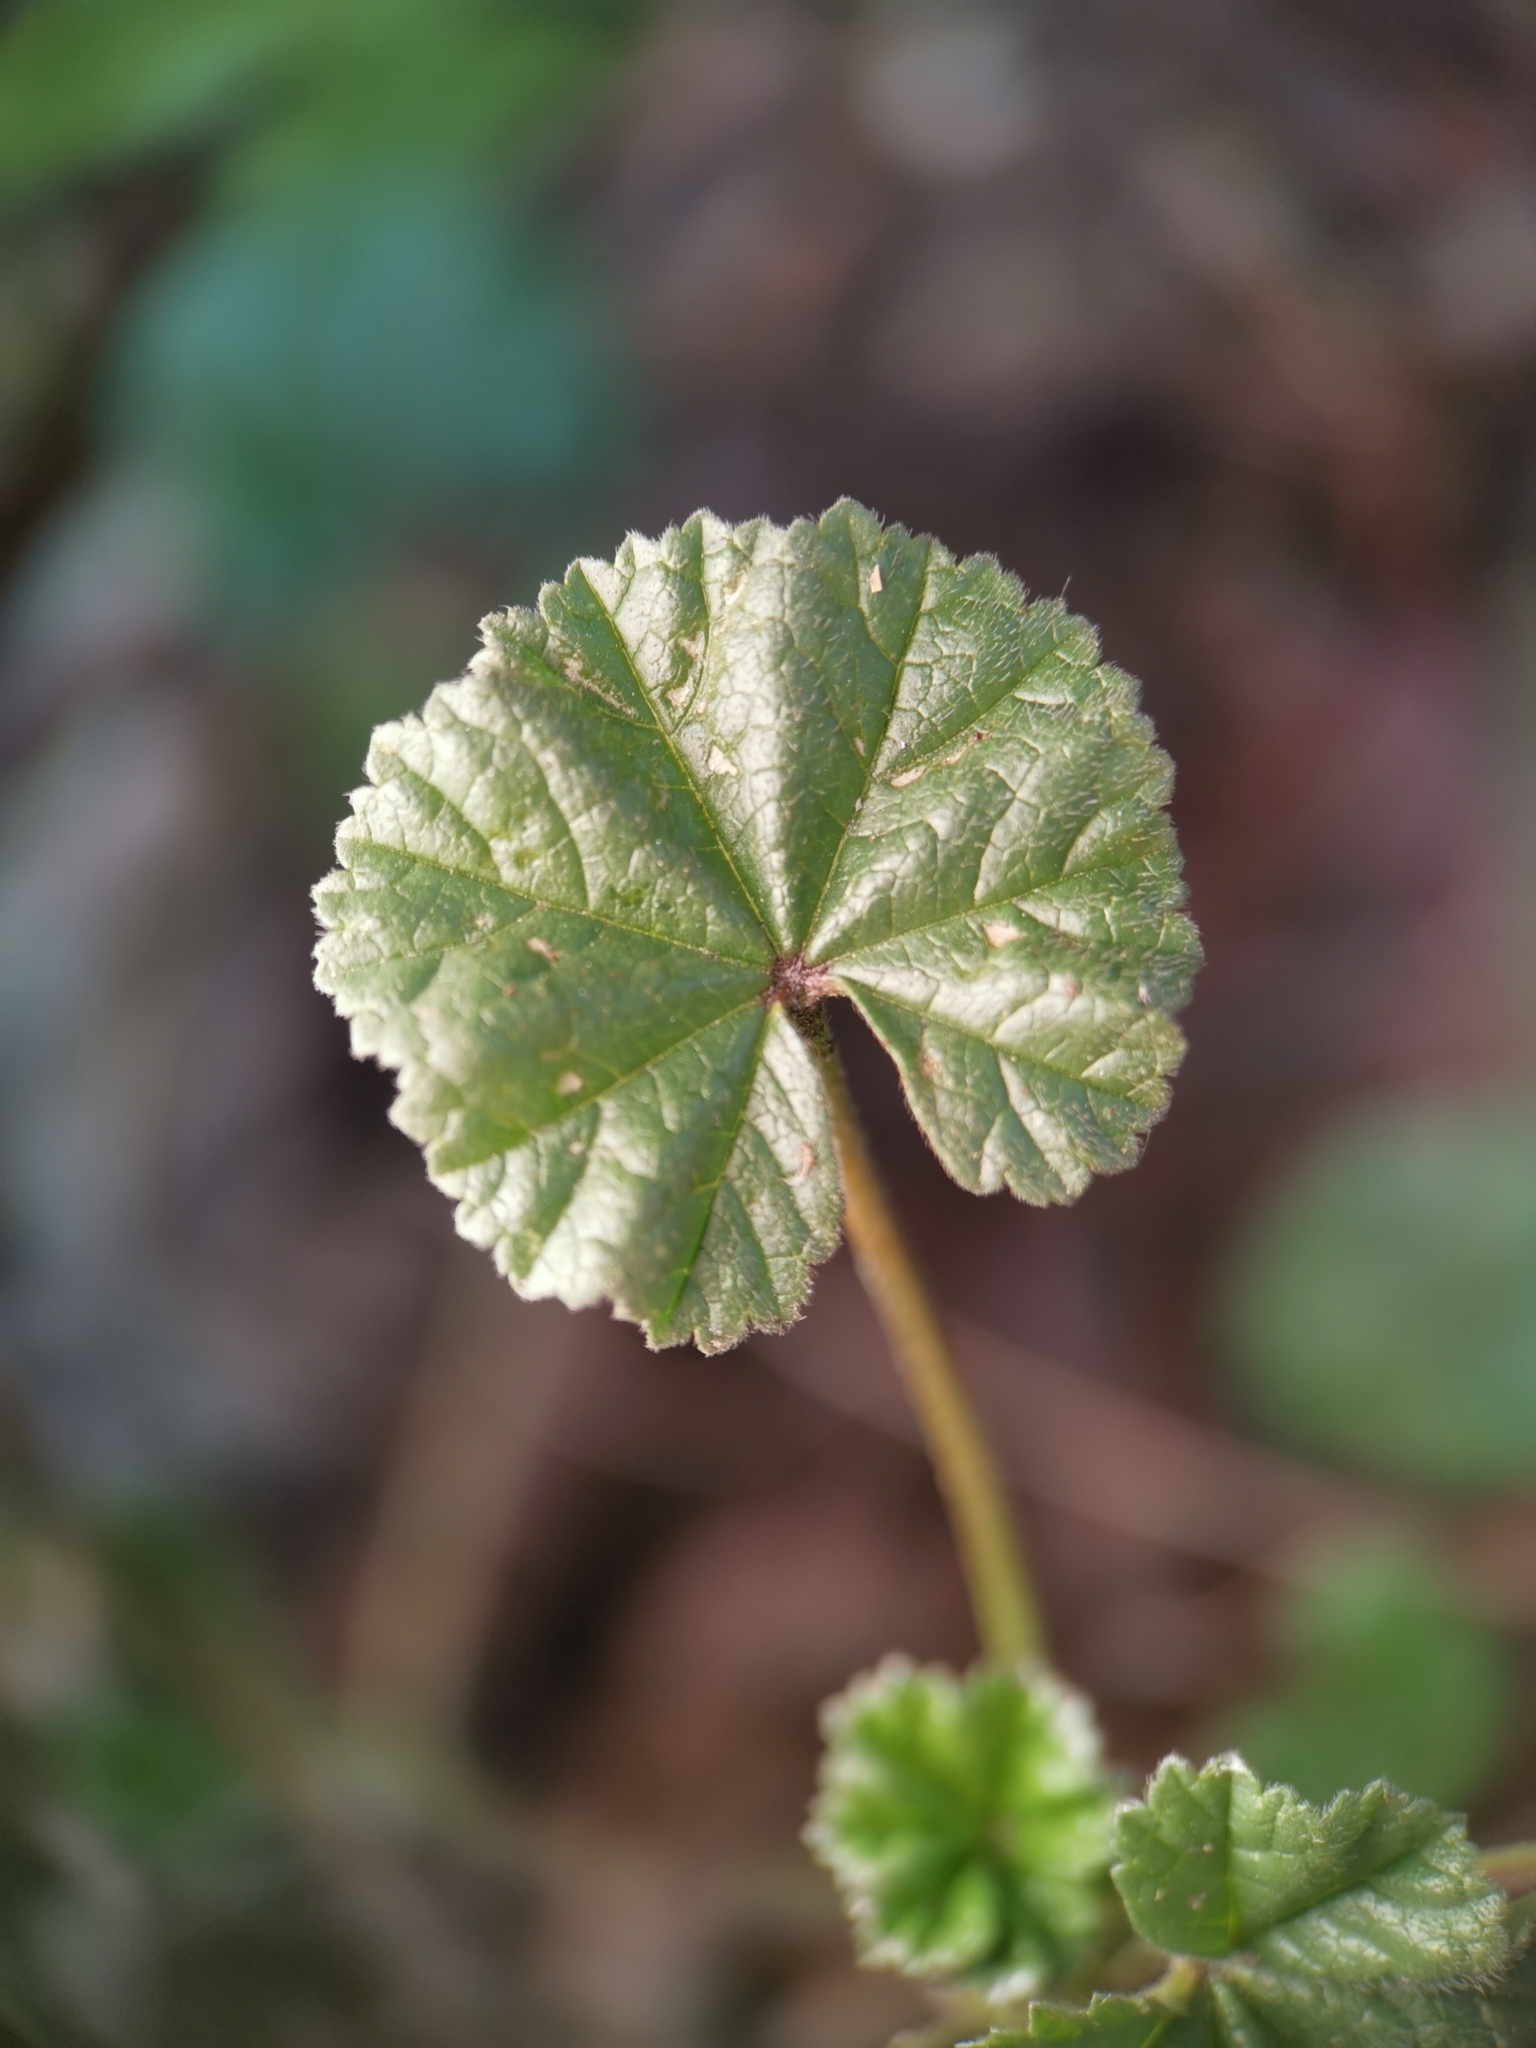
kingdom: Plantae
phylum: Tracheophyta
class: Magnoliopsida
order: Malvales
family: Malvaceae
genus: Malva
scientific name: Malva neglecta
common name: Common mallow
